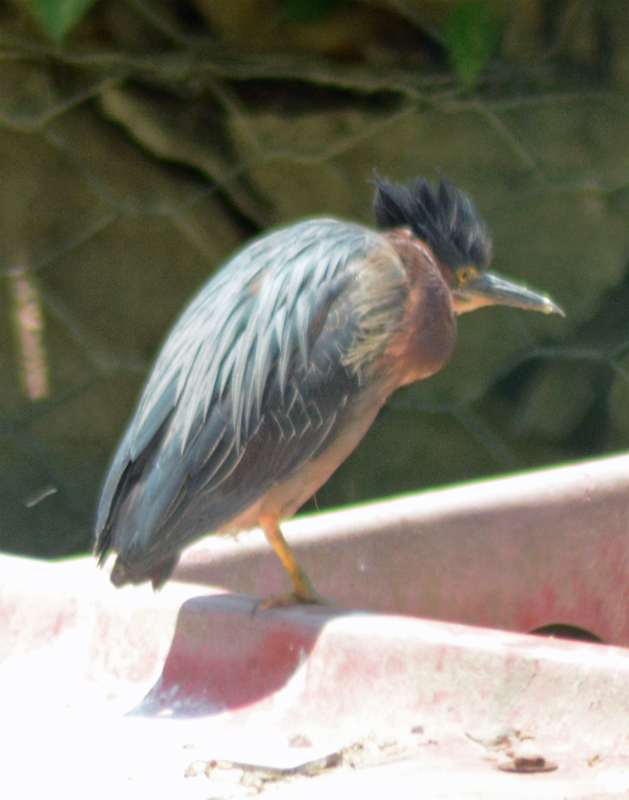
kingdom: Animalia
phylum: Chordata
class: Aves
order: Pelecaniformes
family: Ardeidae
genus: Butorides
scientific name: Butorides virescens
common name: Green heron
